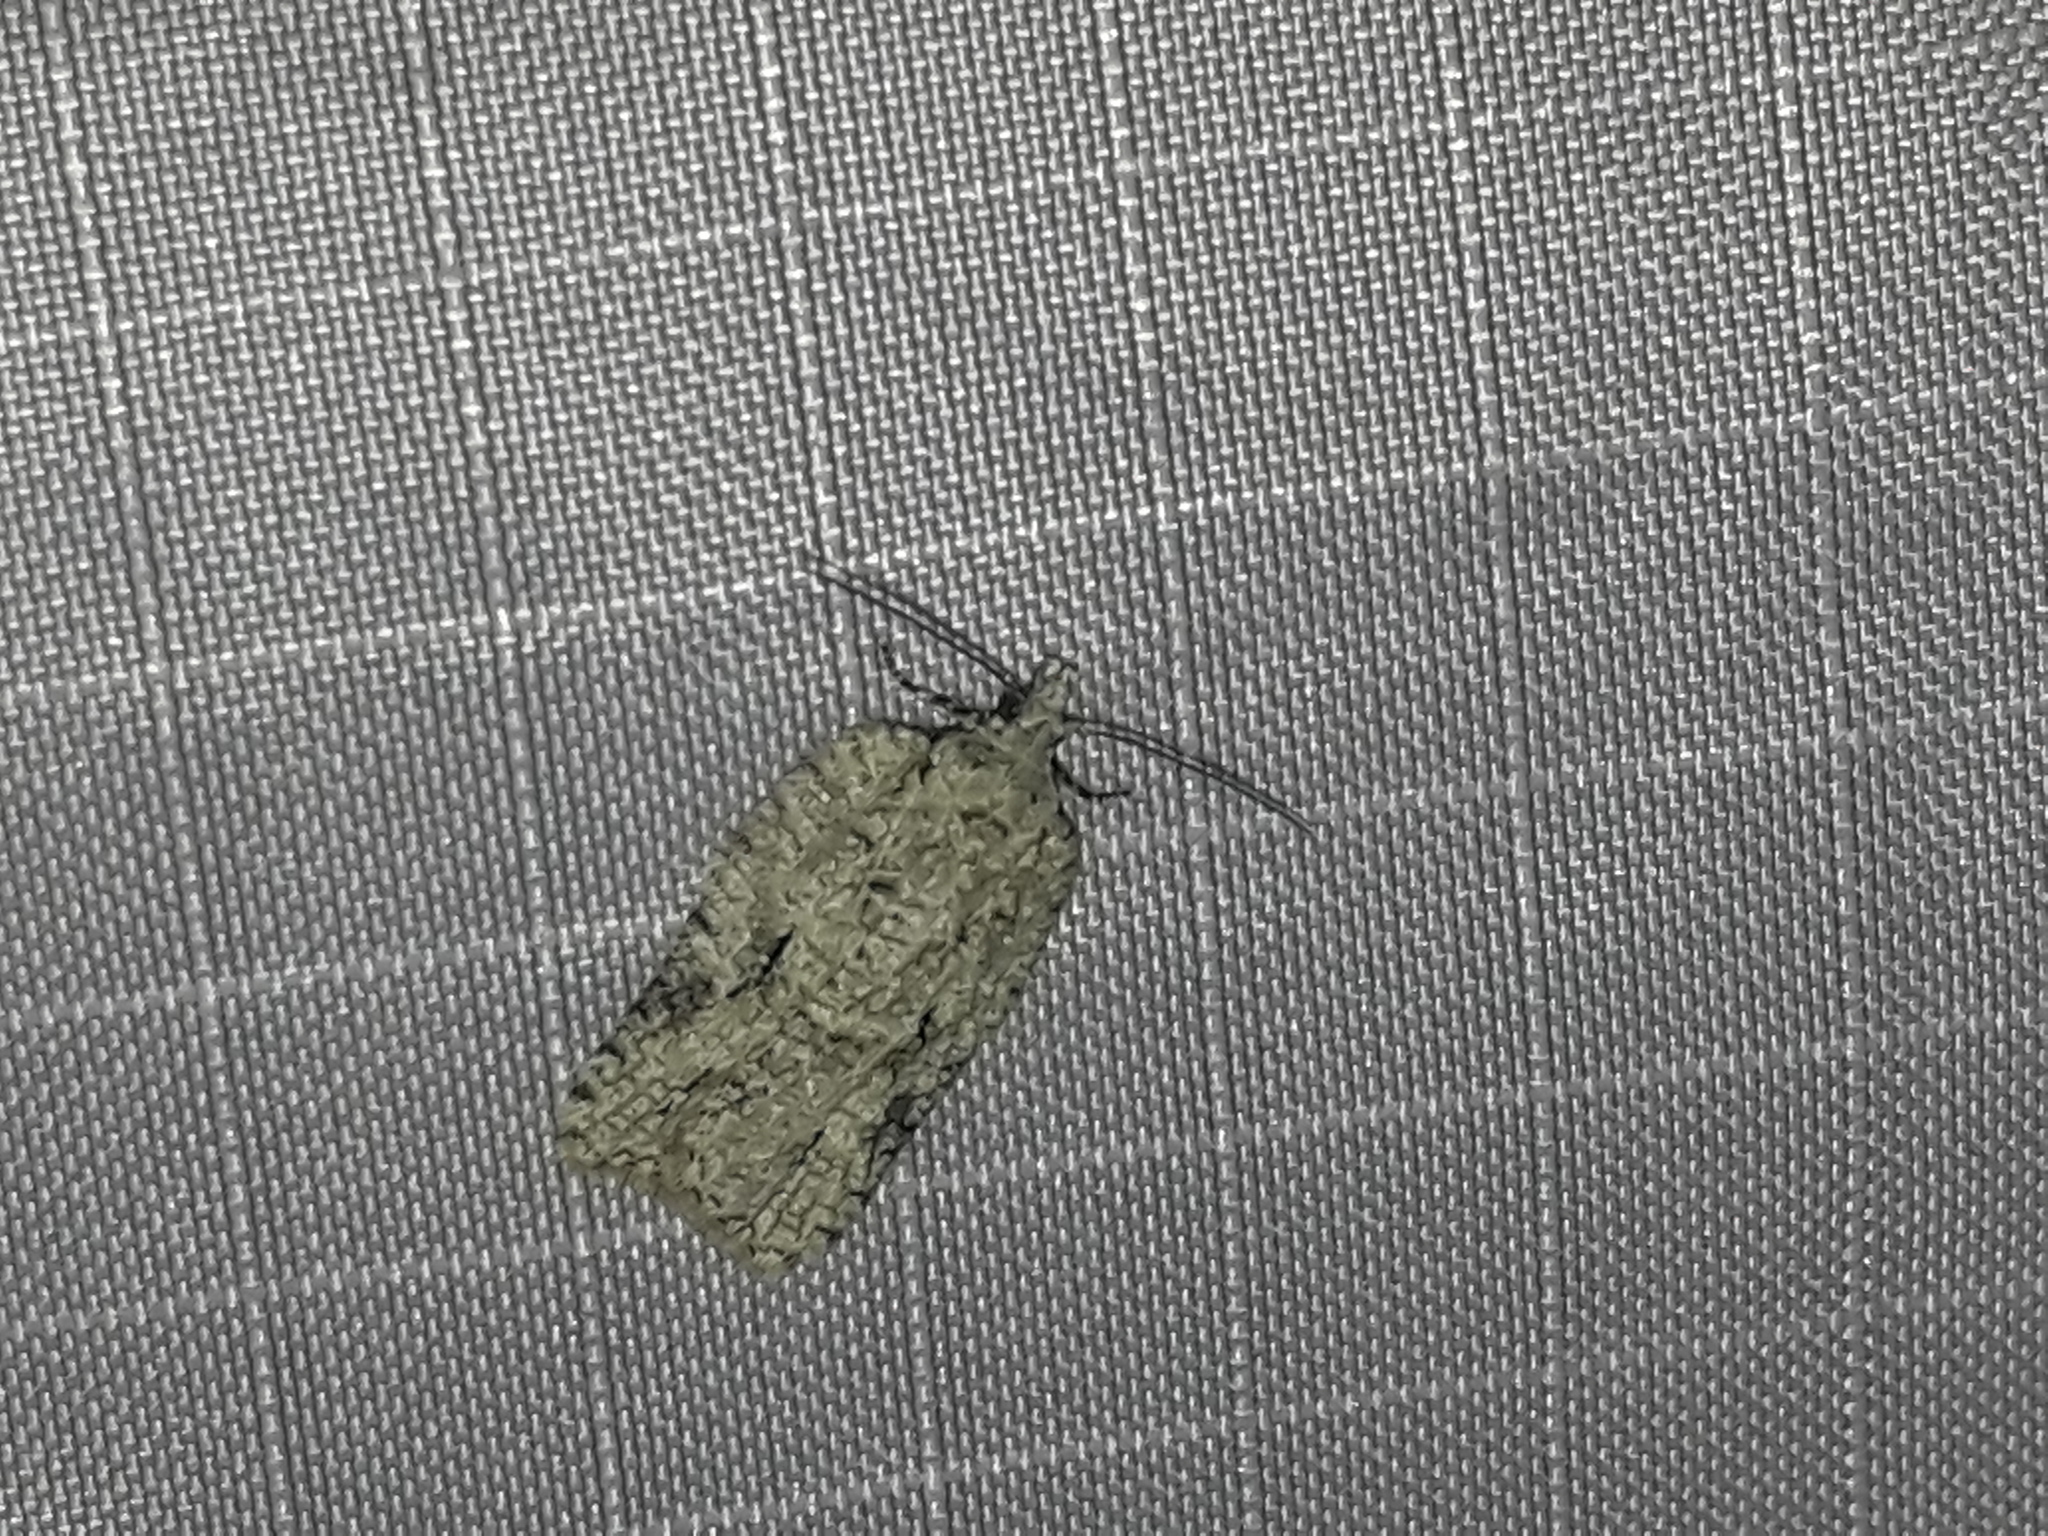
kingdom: Animalia
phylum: Arthropoda
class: Insecta
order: Lepidoptera
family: Tortricidae
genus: Acleris
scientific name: Acleris literana
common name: Lichen button
